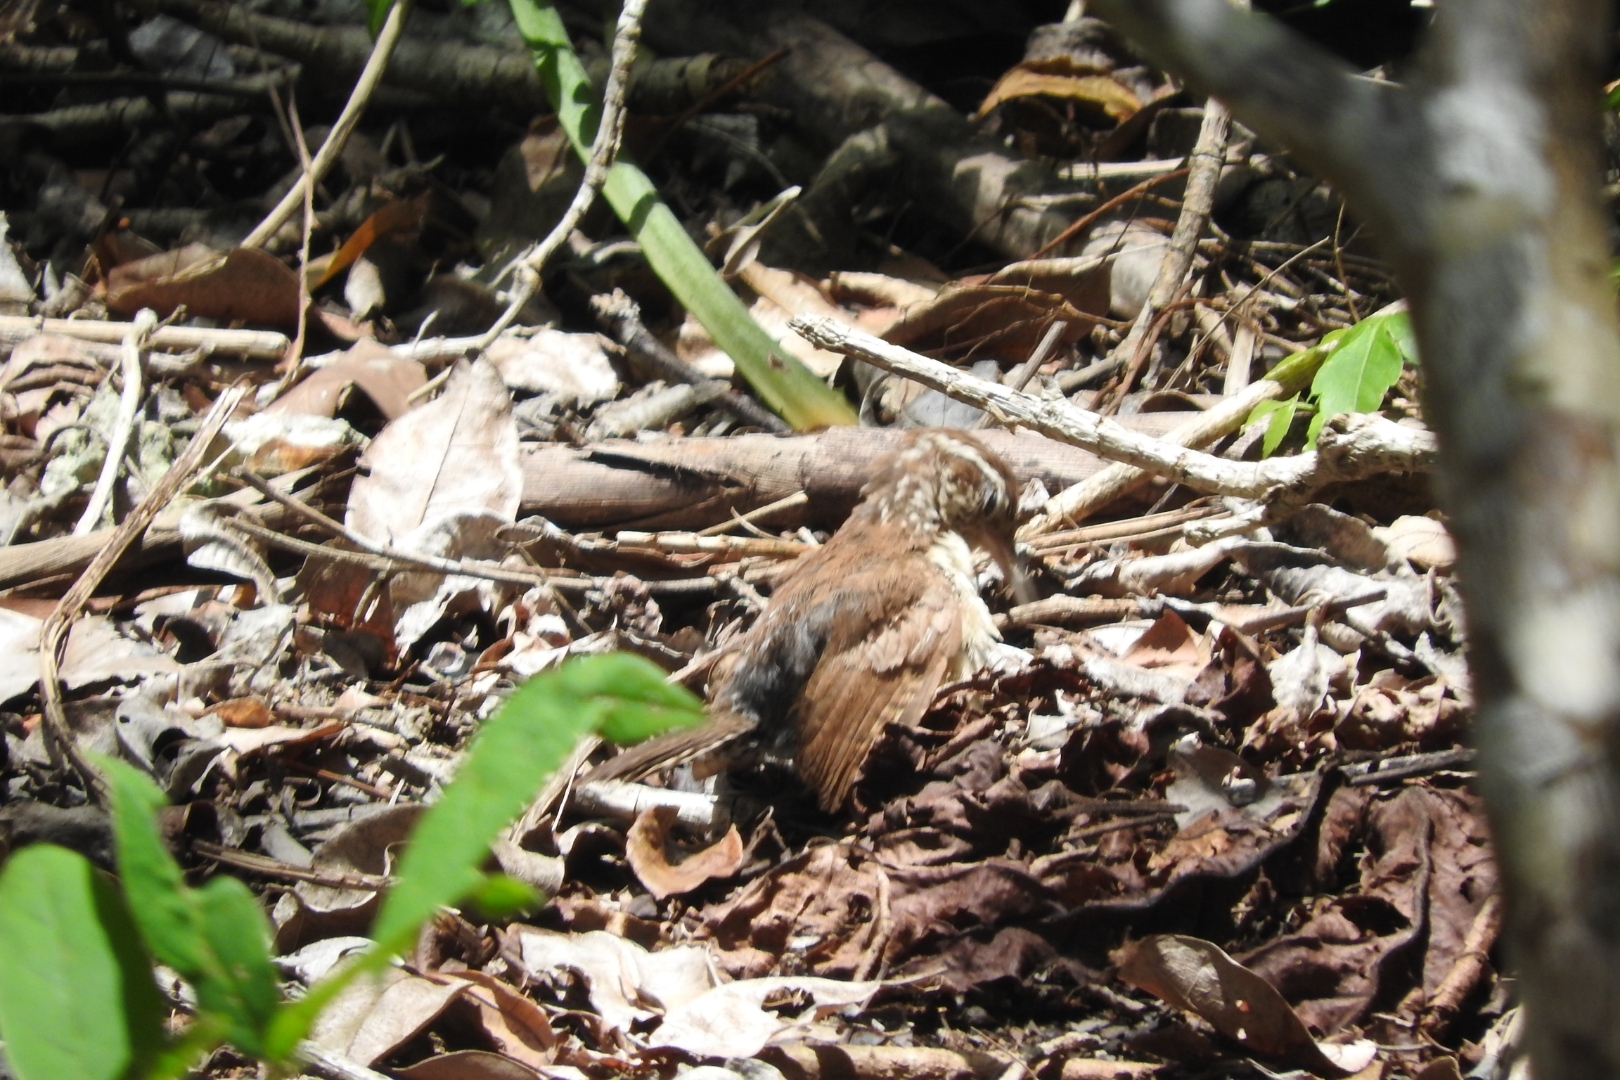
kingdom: Animalia
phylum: Chordata
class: Aves
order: Passeriformes
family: Troglodytidae
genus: Thryothorus
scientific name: Thryothorus ludovicianus
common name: Carolina wren
